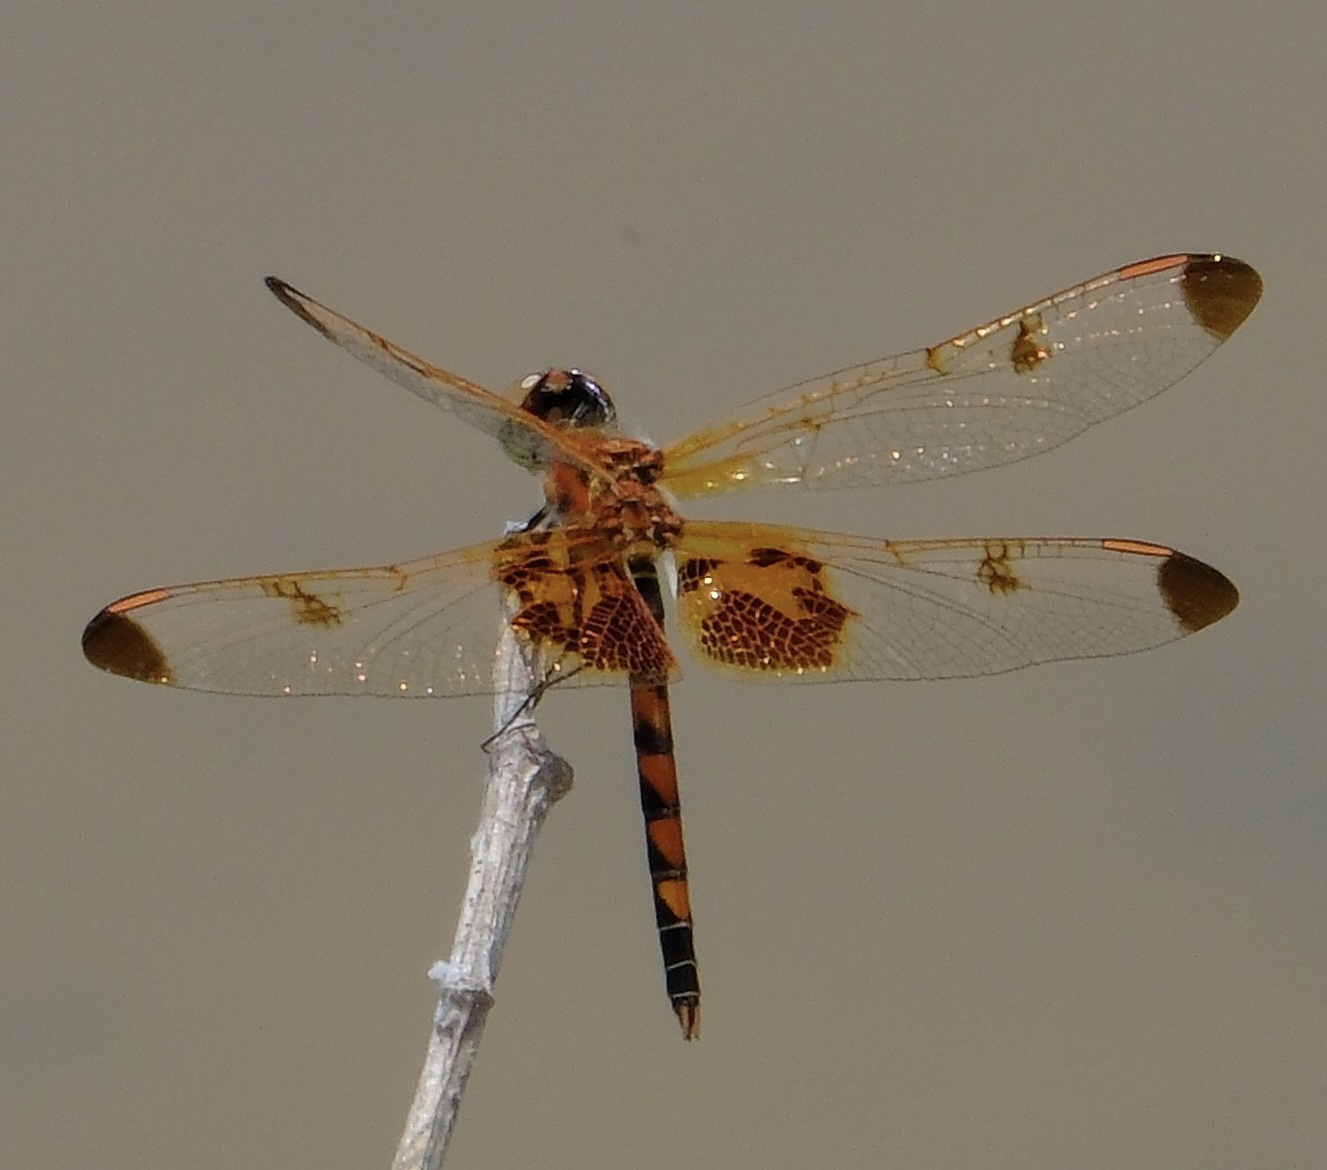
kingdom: Animalia
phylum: Arthropoda
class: Insecta
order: Odonata
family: Libellulidae
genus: Celithemis
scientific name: Celithemis elisa
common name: Calico pennant
